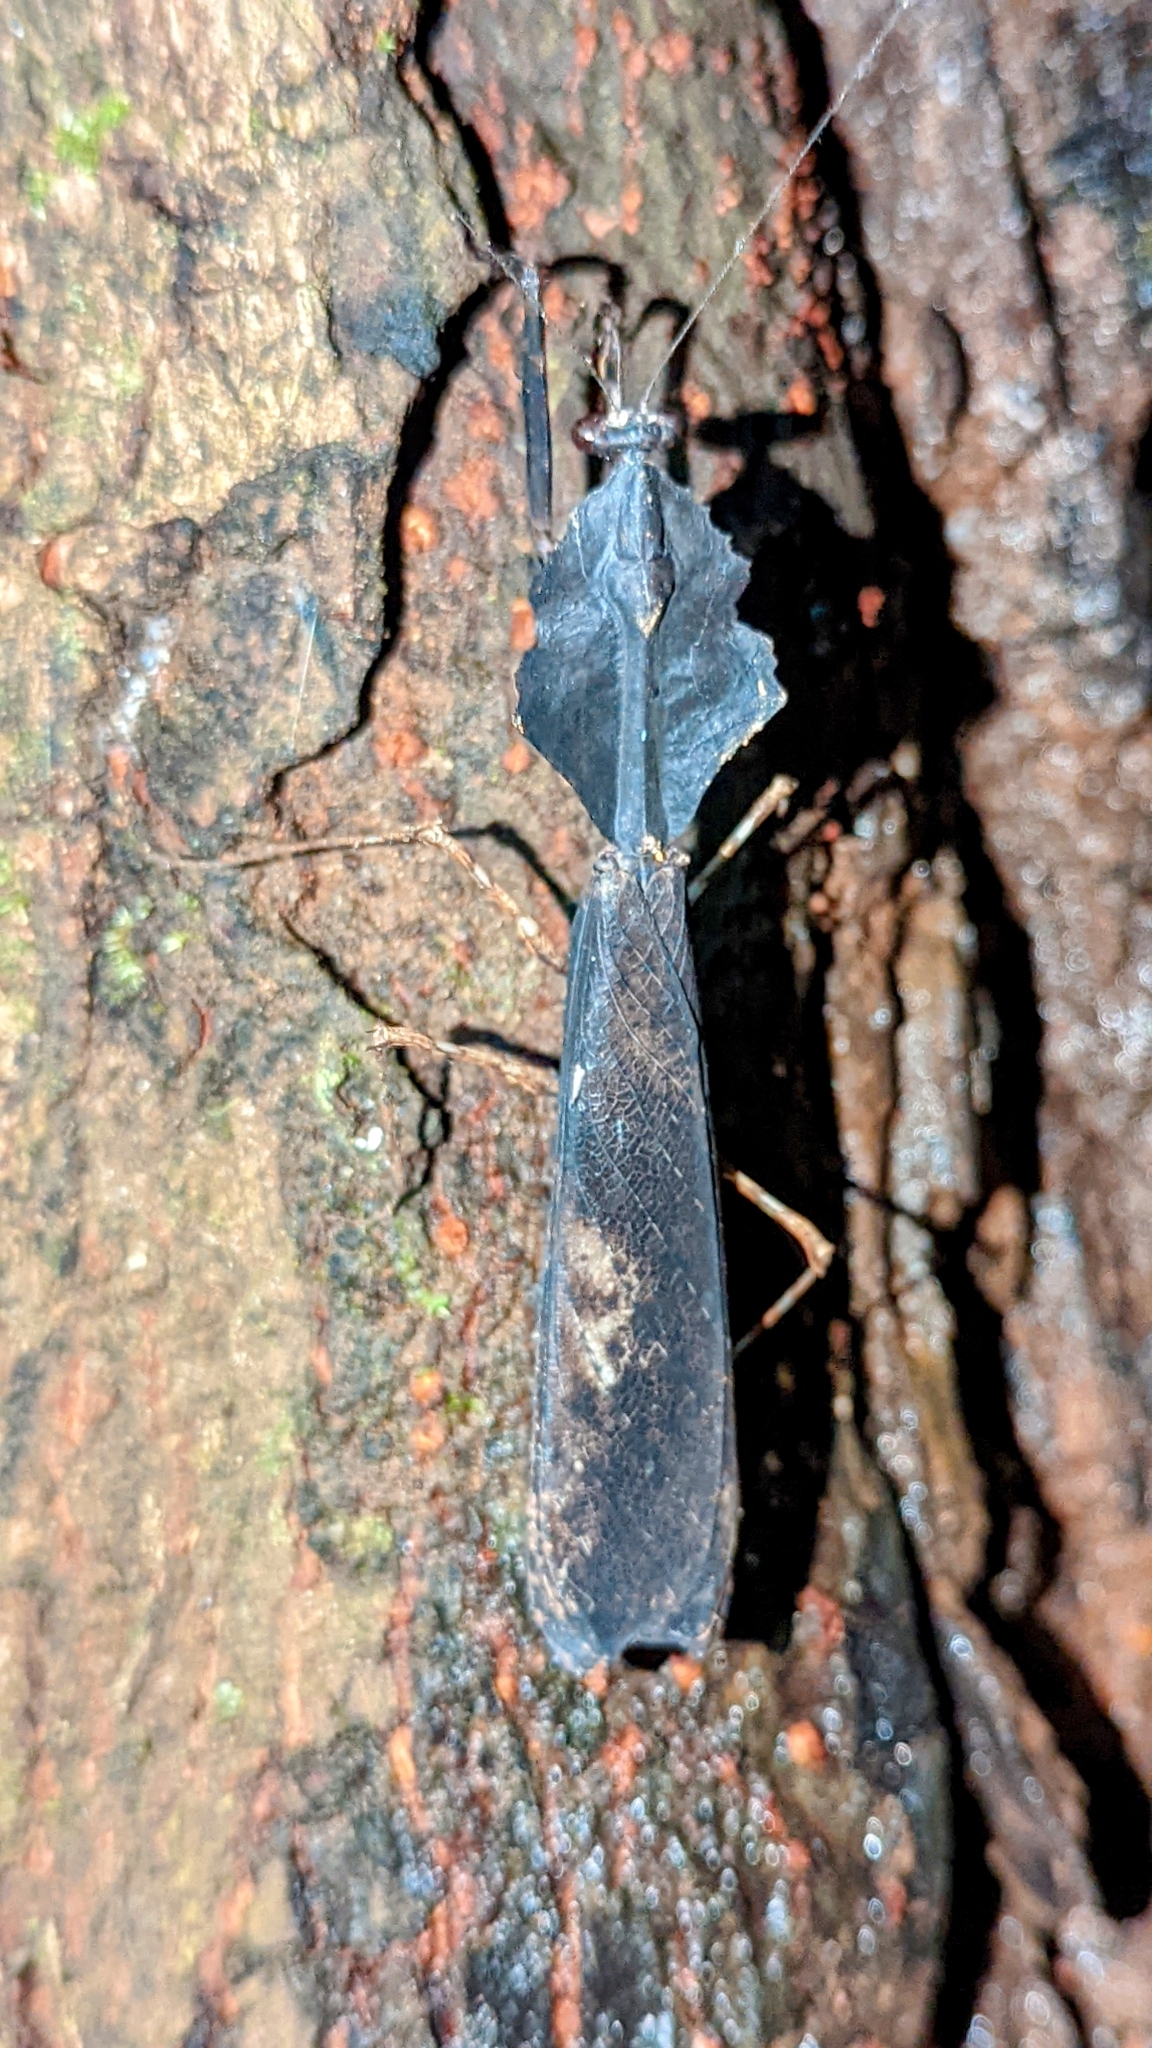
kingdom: Animalia
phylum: Arthropoda
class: Insecta
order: Mantodea
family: Deroplatyidae
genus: Deroplatys
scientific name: Deroplatys indica
